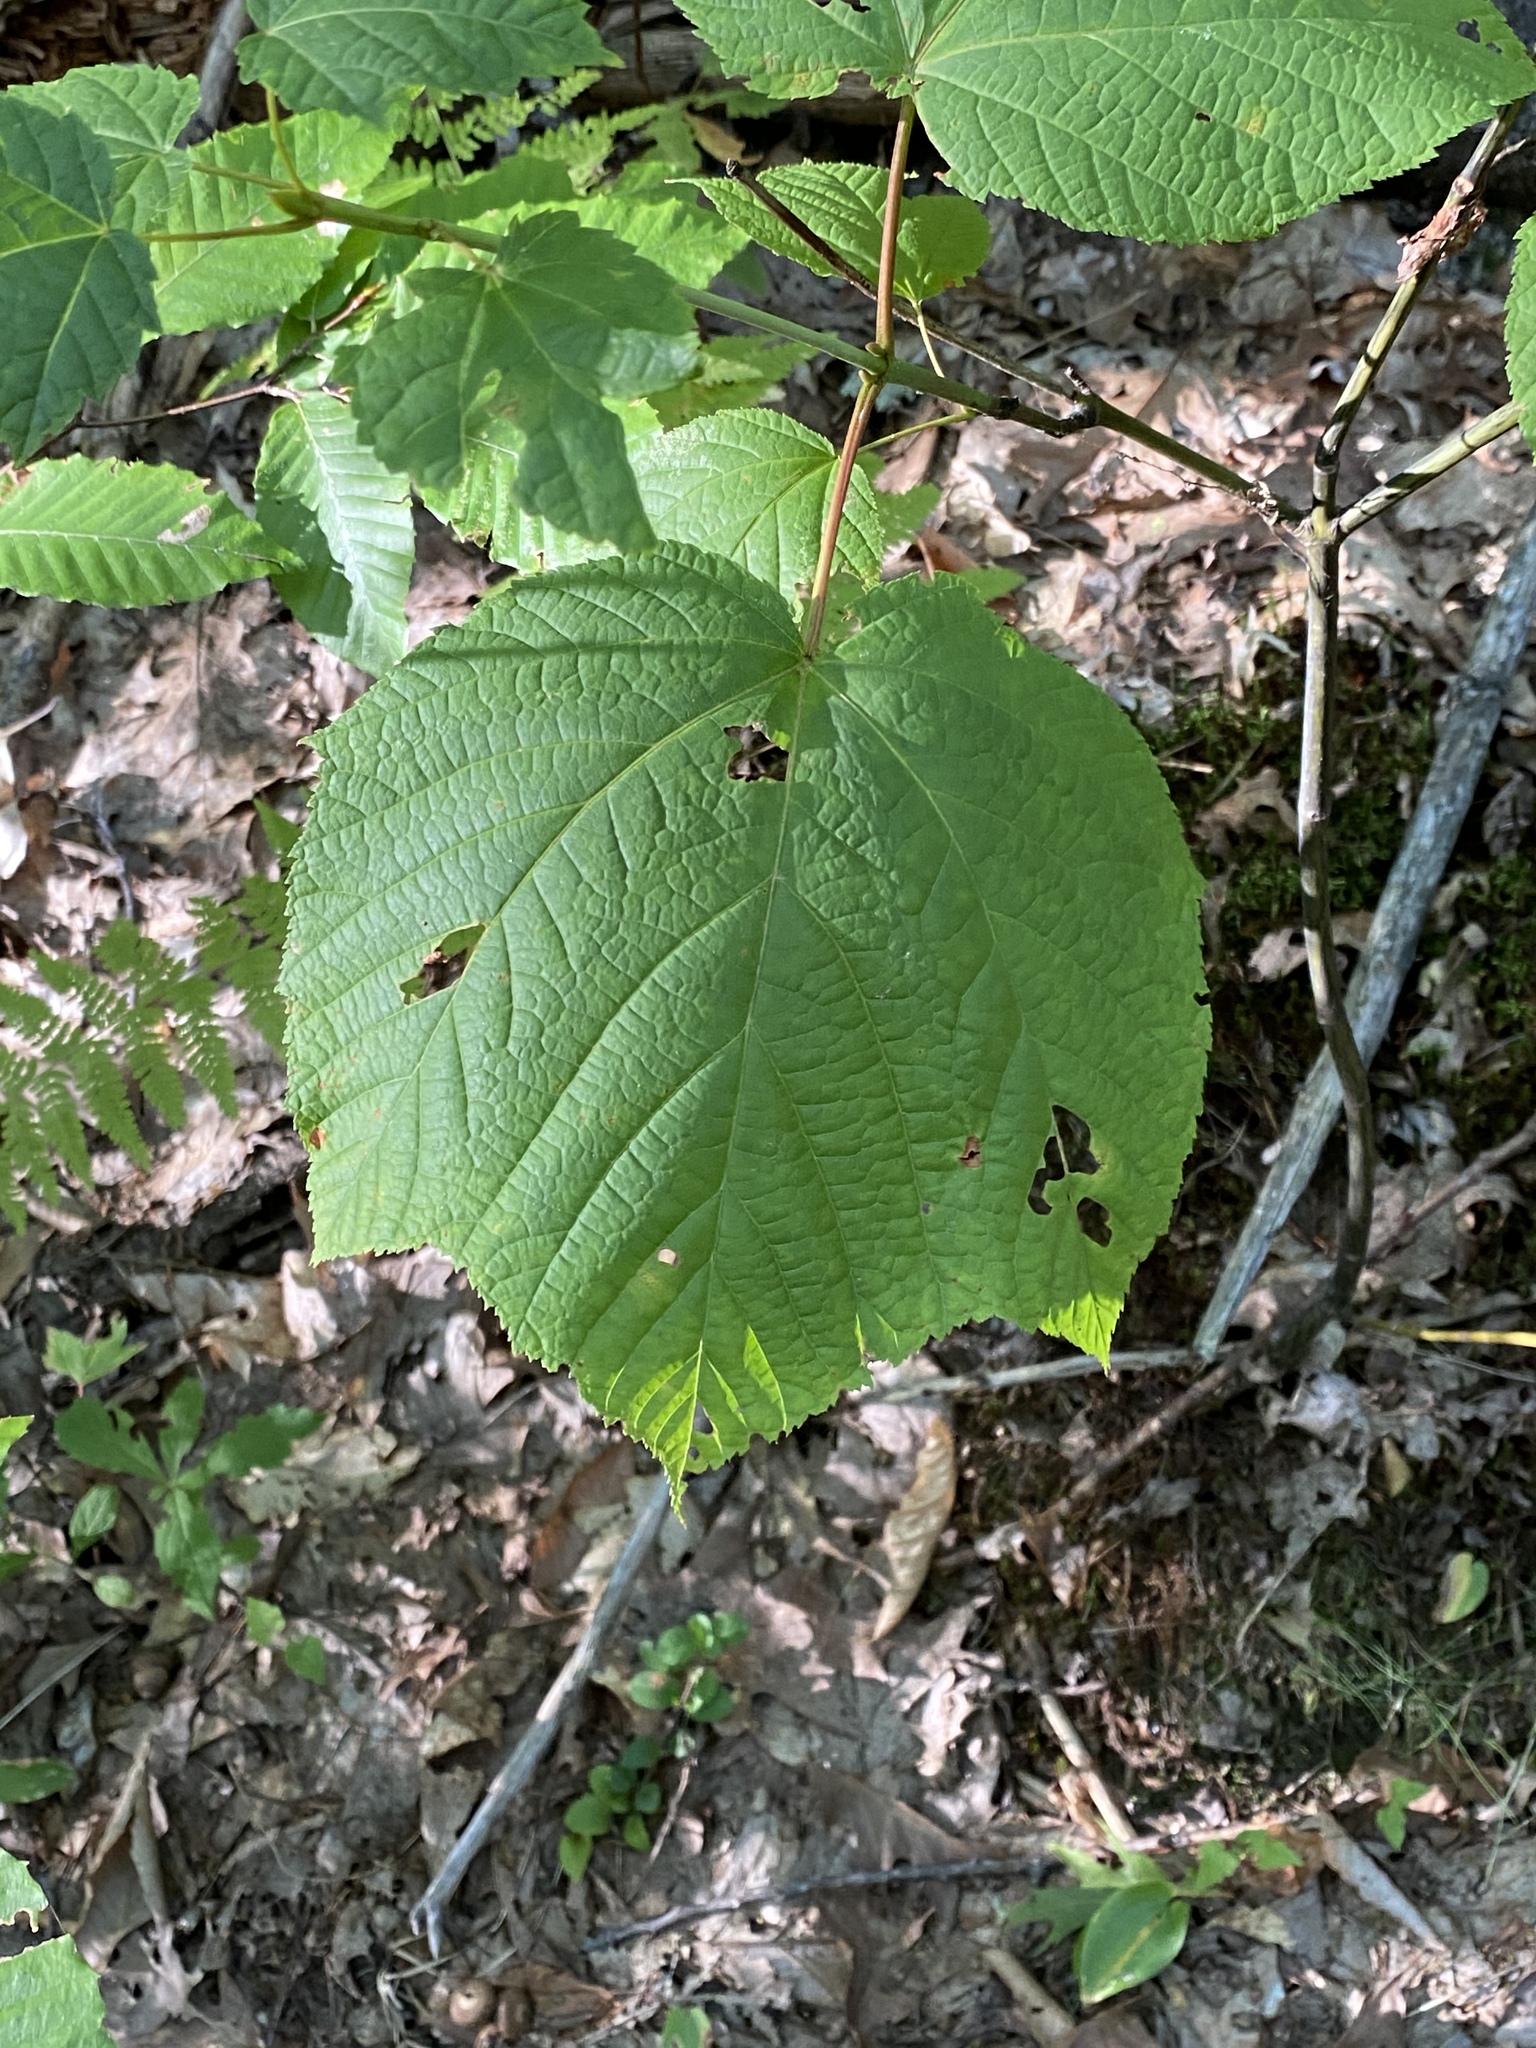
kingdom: Plantae
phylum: Tracheophyta
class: Magnoliopsida
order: Sapindales
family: Sapindaceae
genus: Acer
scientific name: Acer pensylvanicum
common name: Moosewood
